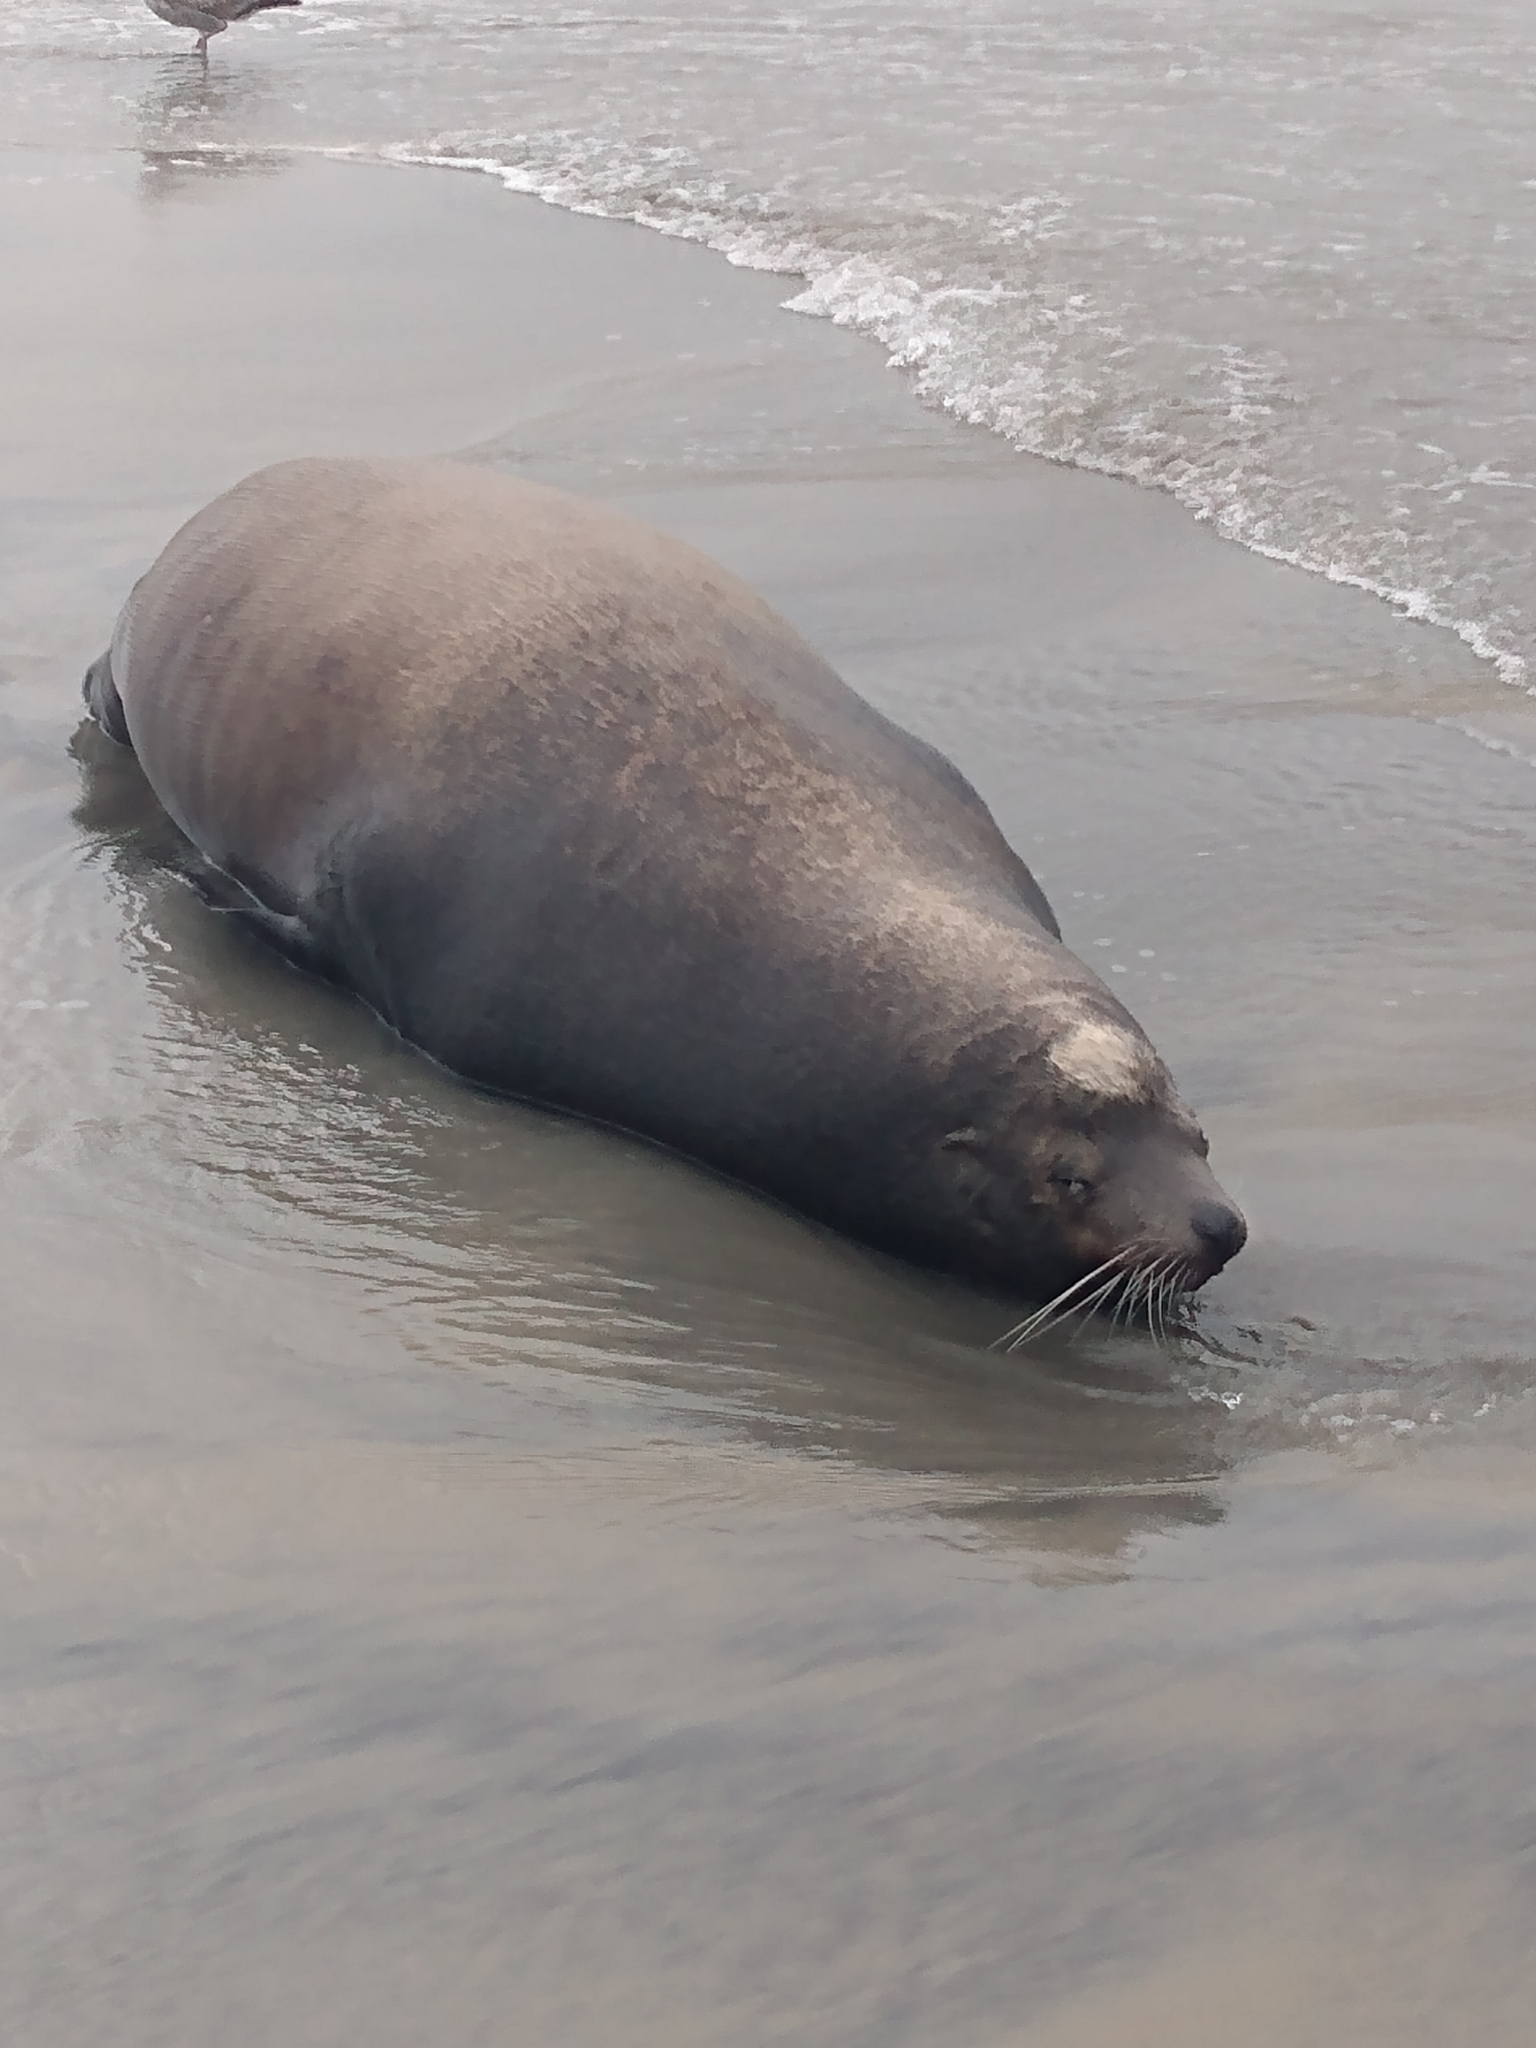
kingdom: Animalia
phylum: Chordata
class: Mammalia
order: Carnivora
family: Otariidae
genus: Zalophus
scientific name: Zalophus californianus
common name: California sea lion
